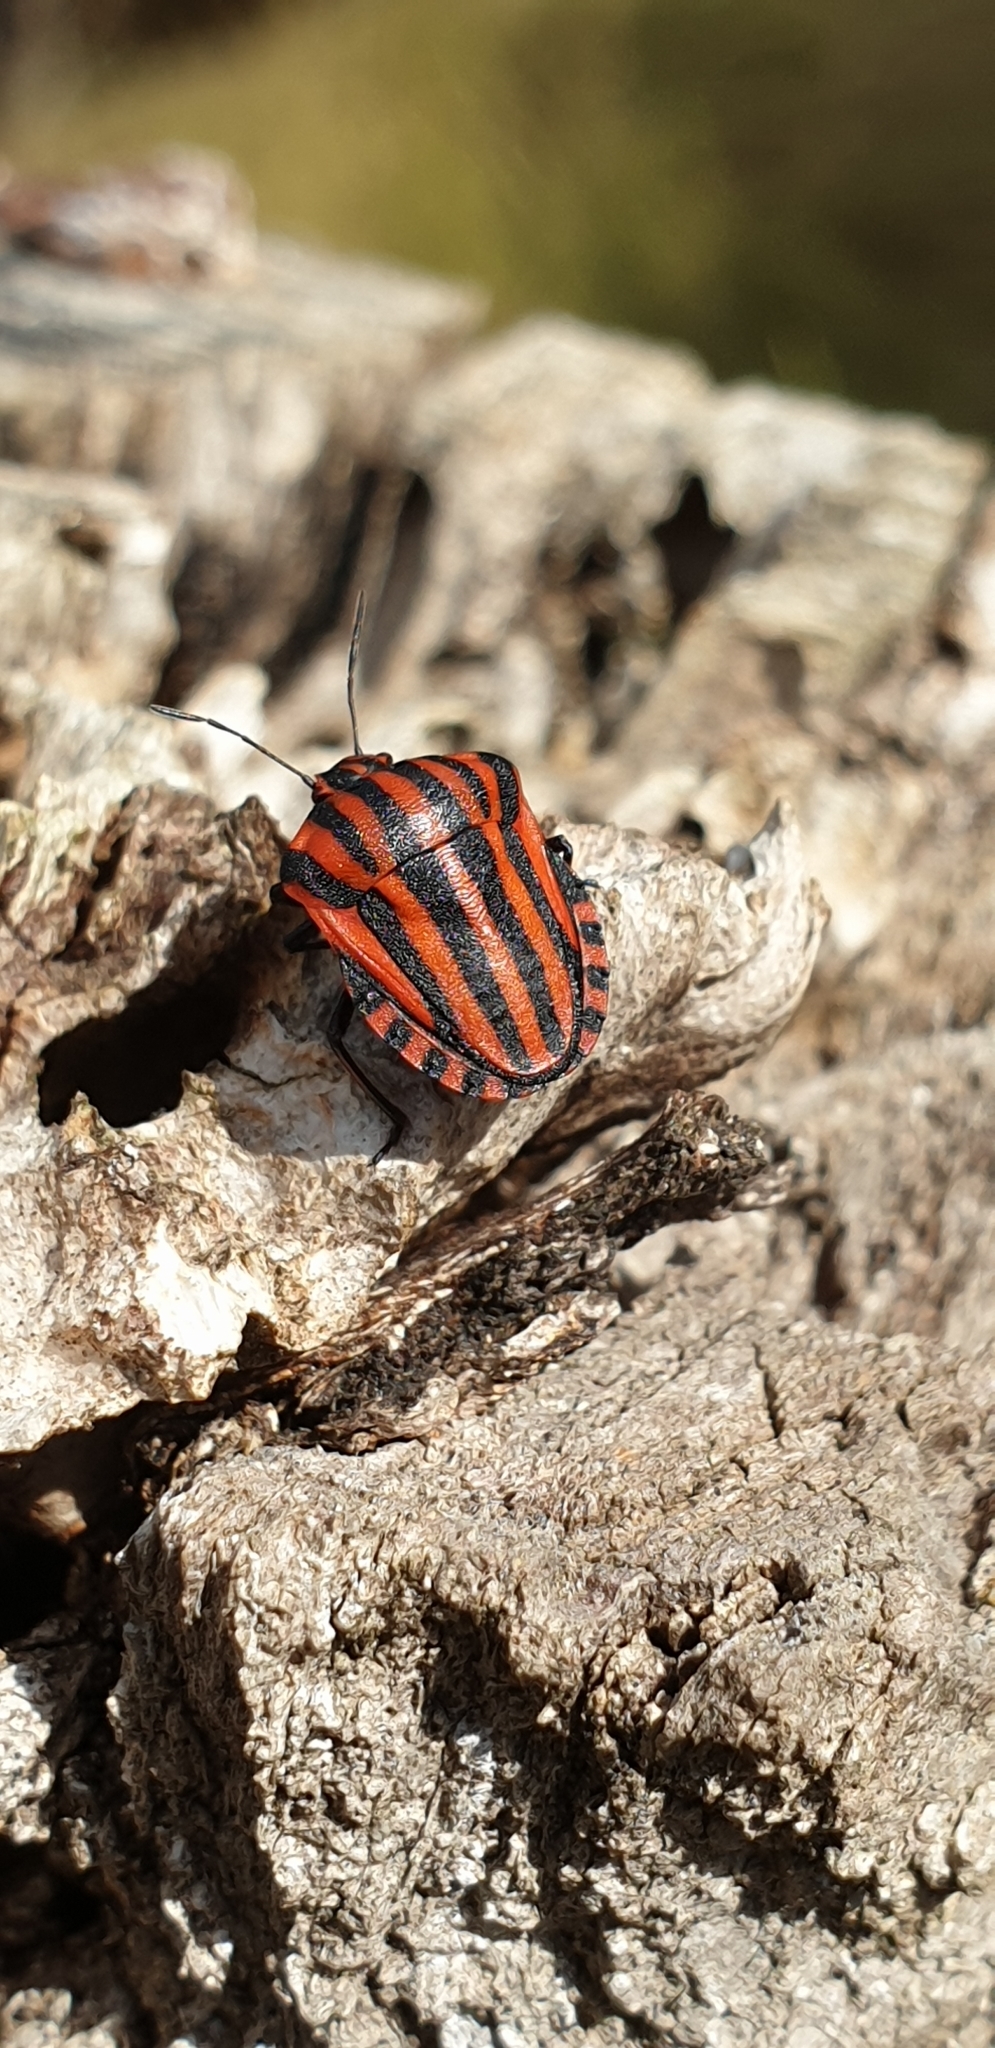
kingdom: Animalia
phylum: Arthropoda
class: Insecta
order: Hemiptera
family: Pentatomidae
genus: Graphosoma
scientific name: Graphosoma italicum
